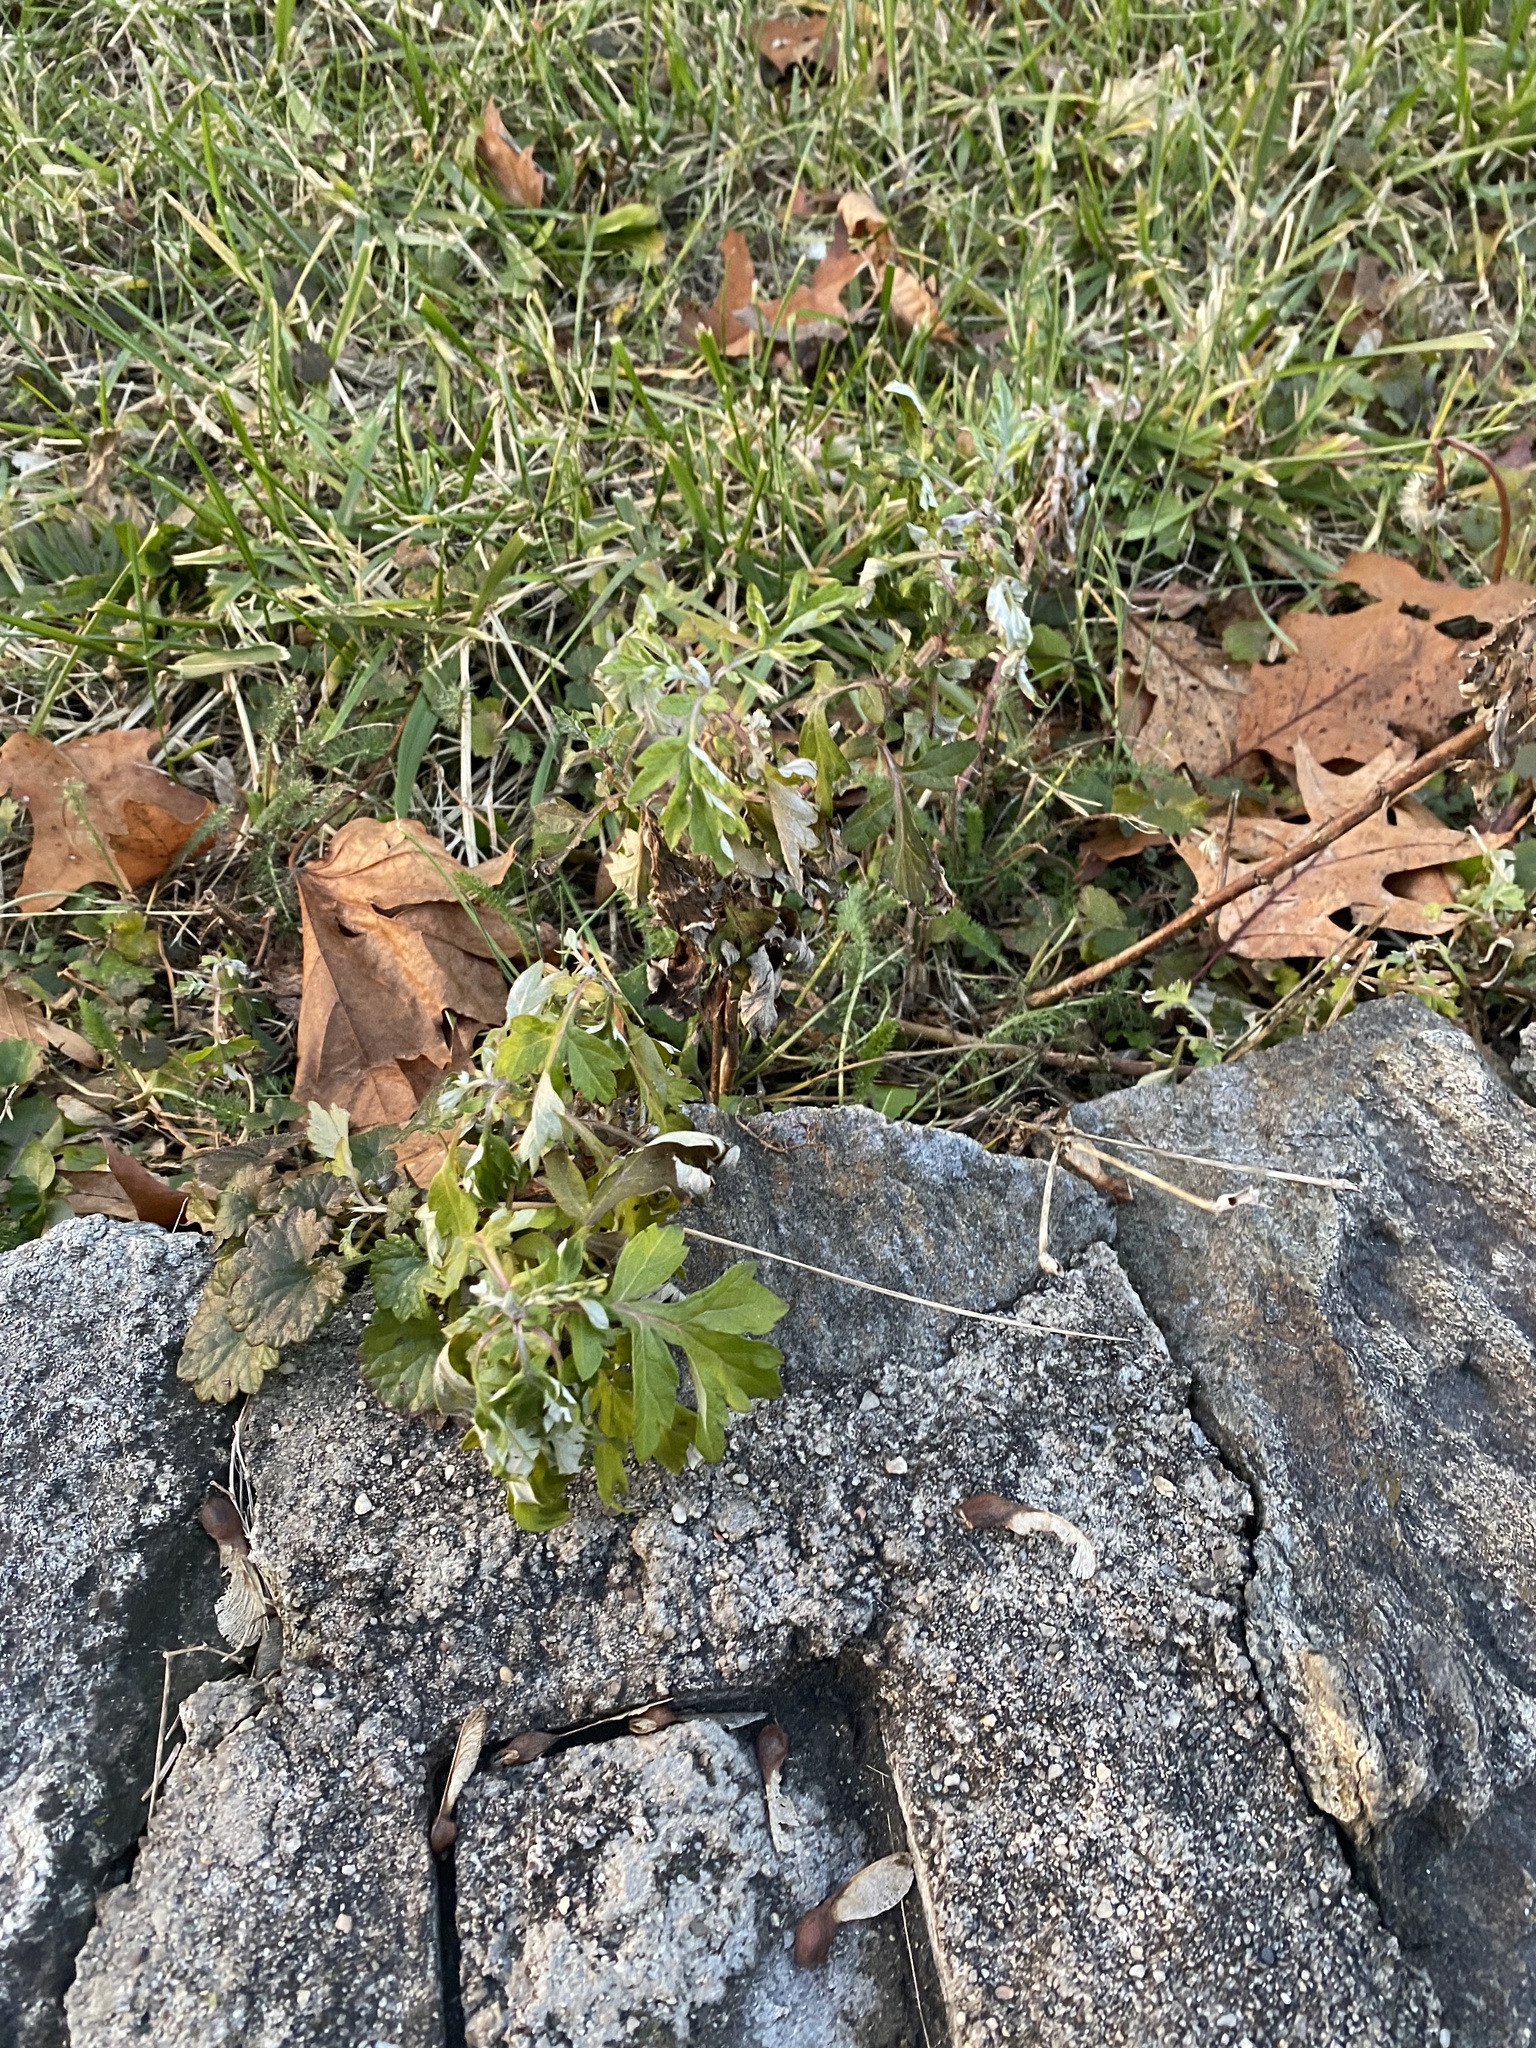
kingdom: Plantae
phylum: Tracheophyta
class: Magnoliopsida
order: Asterales
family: Asteraceae
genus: Artemisia
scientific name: Artemisia vulgaris
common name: Mugwort
